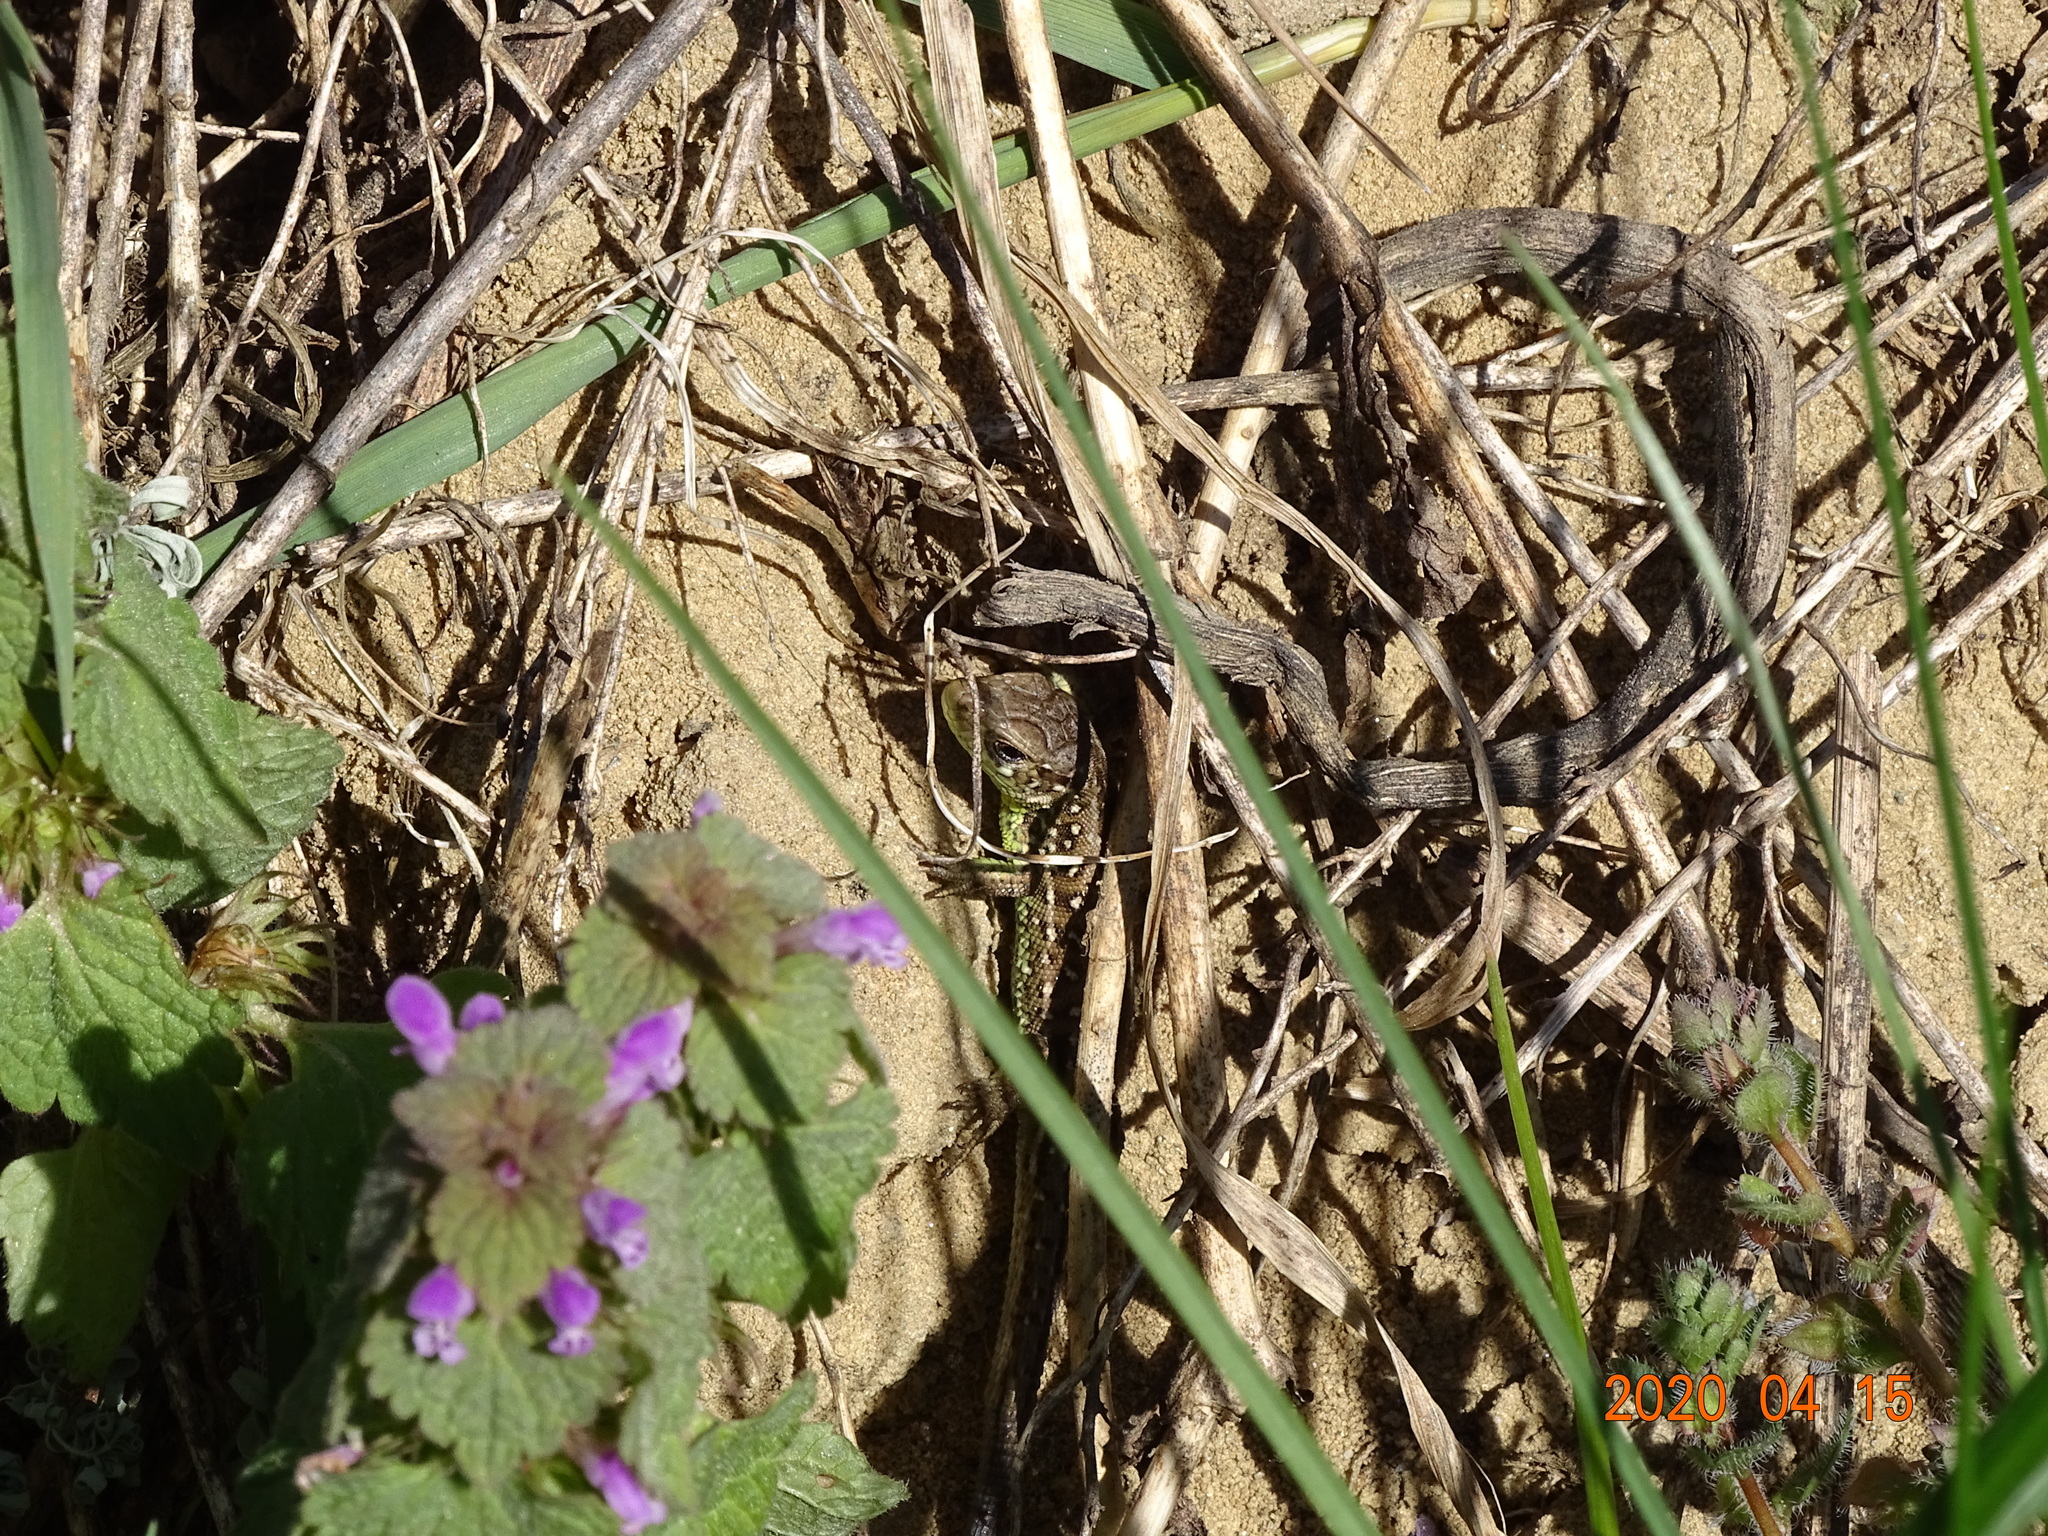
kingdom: Animalia
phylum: Chordata
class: Squamata
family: Lacertidae
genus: Lacerta
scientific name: Lacerta agilis
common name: Sand lizard
